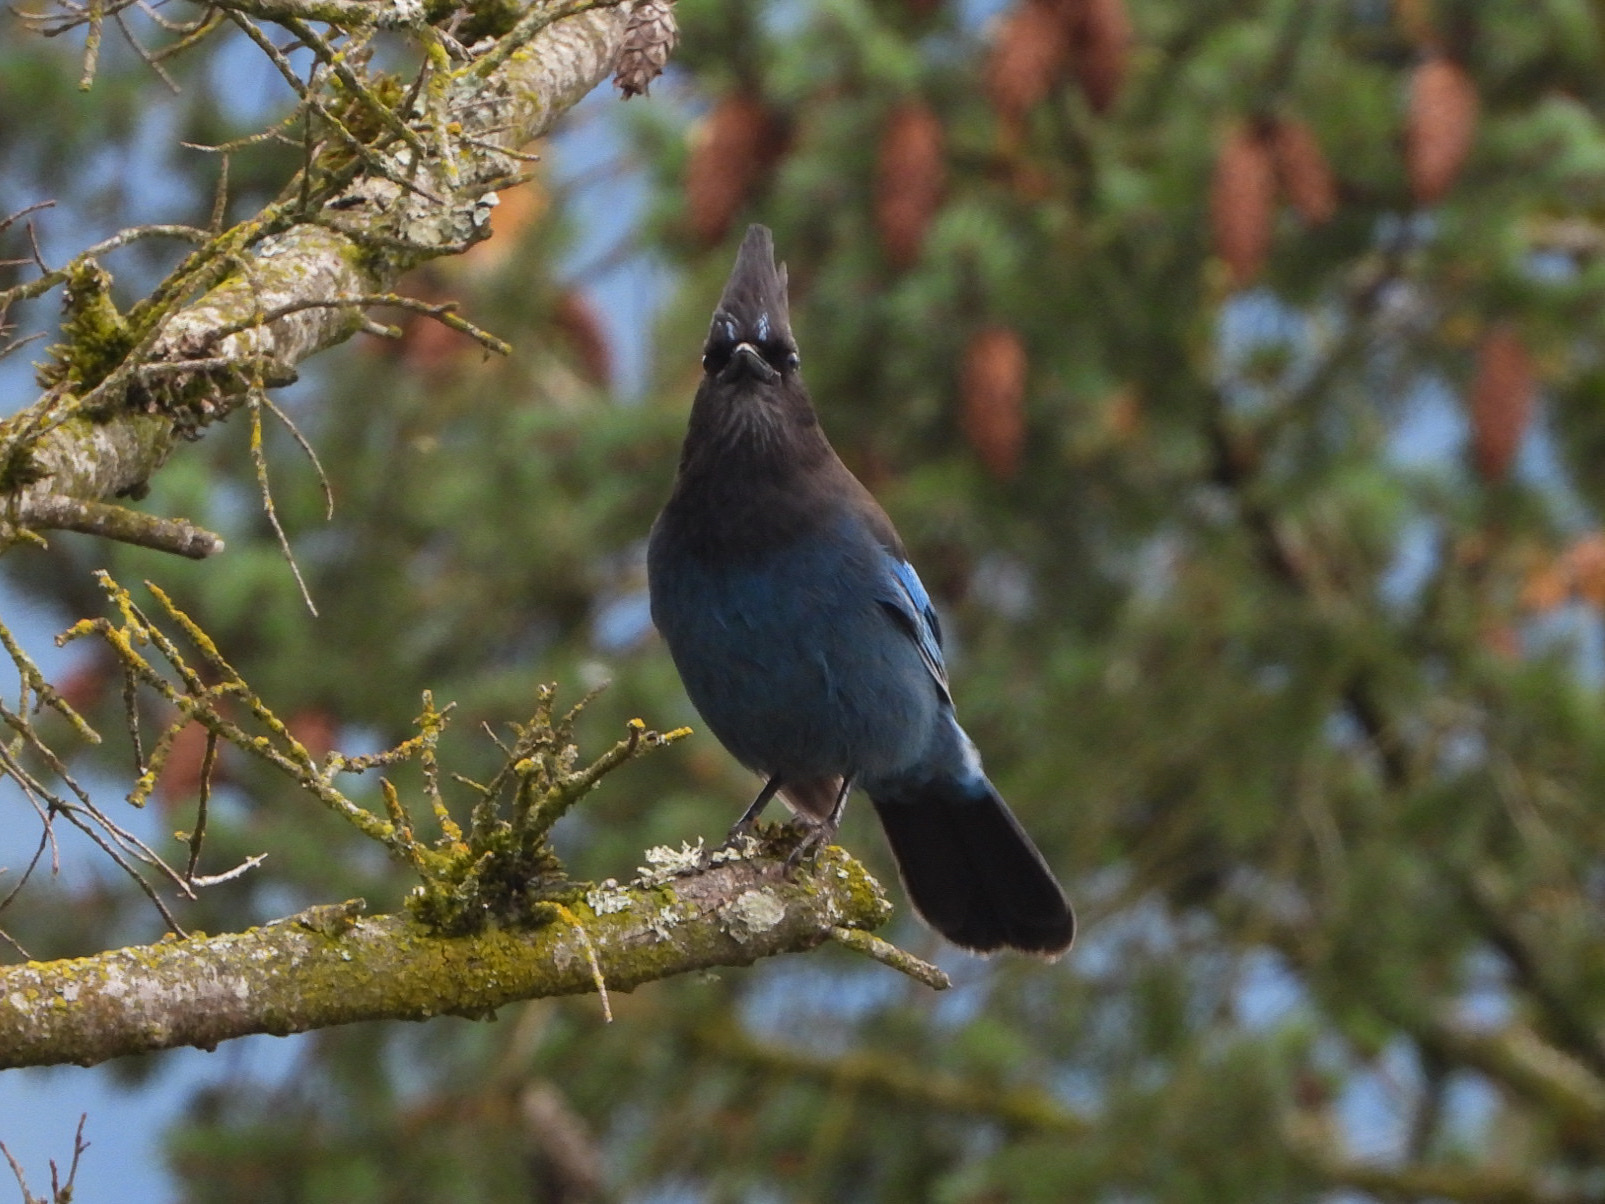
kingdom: Animalia
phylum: Chordata
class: Aves
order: Passeriformes
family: Corvidae
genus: Cyanocitta
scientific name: Cyanocitta stelleri
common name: Steller's jay
